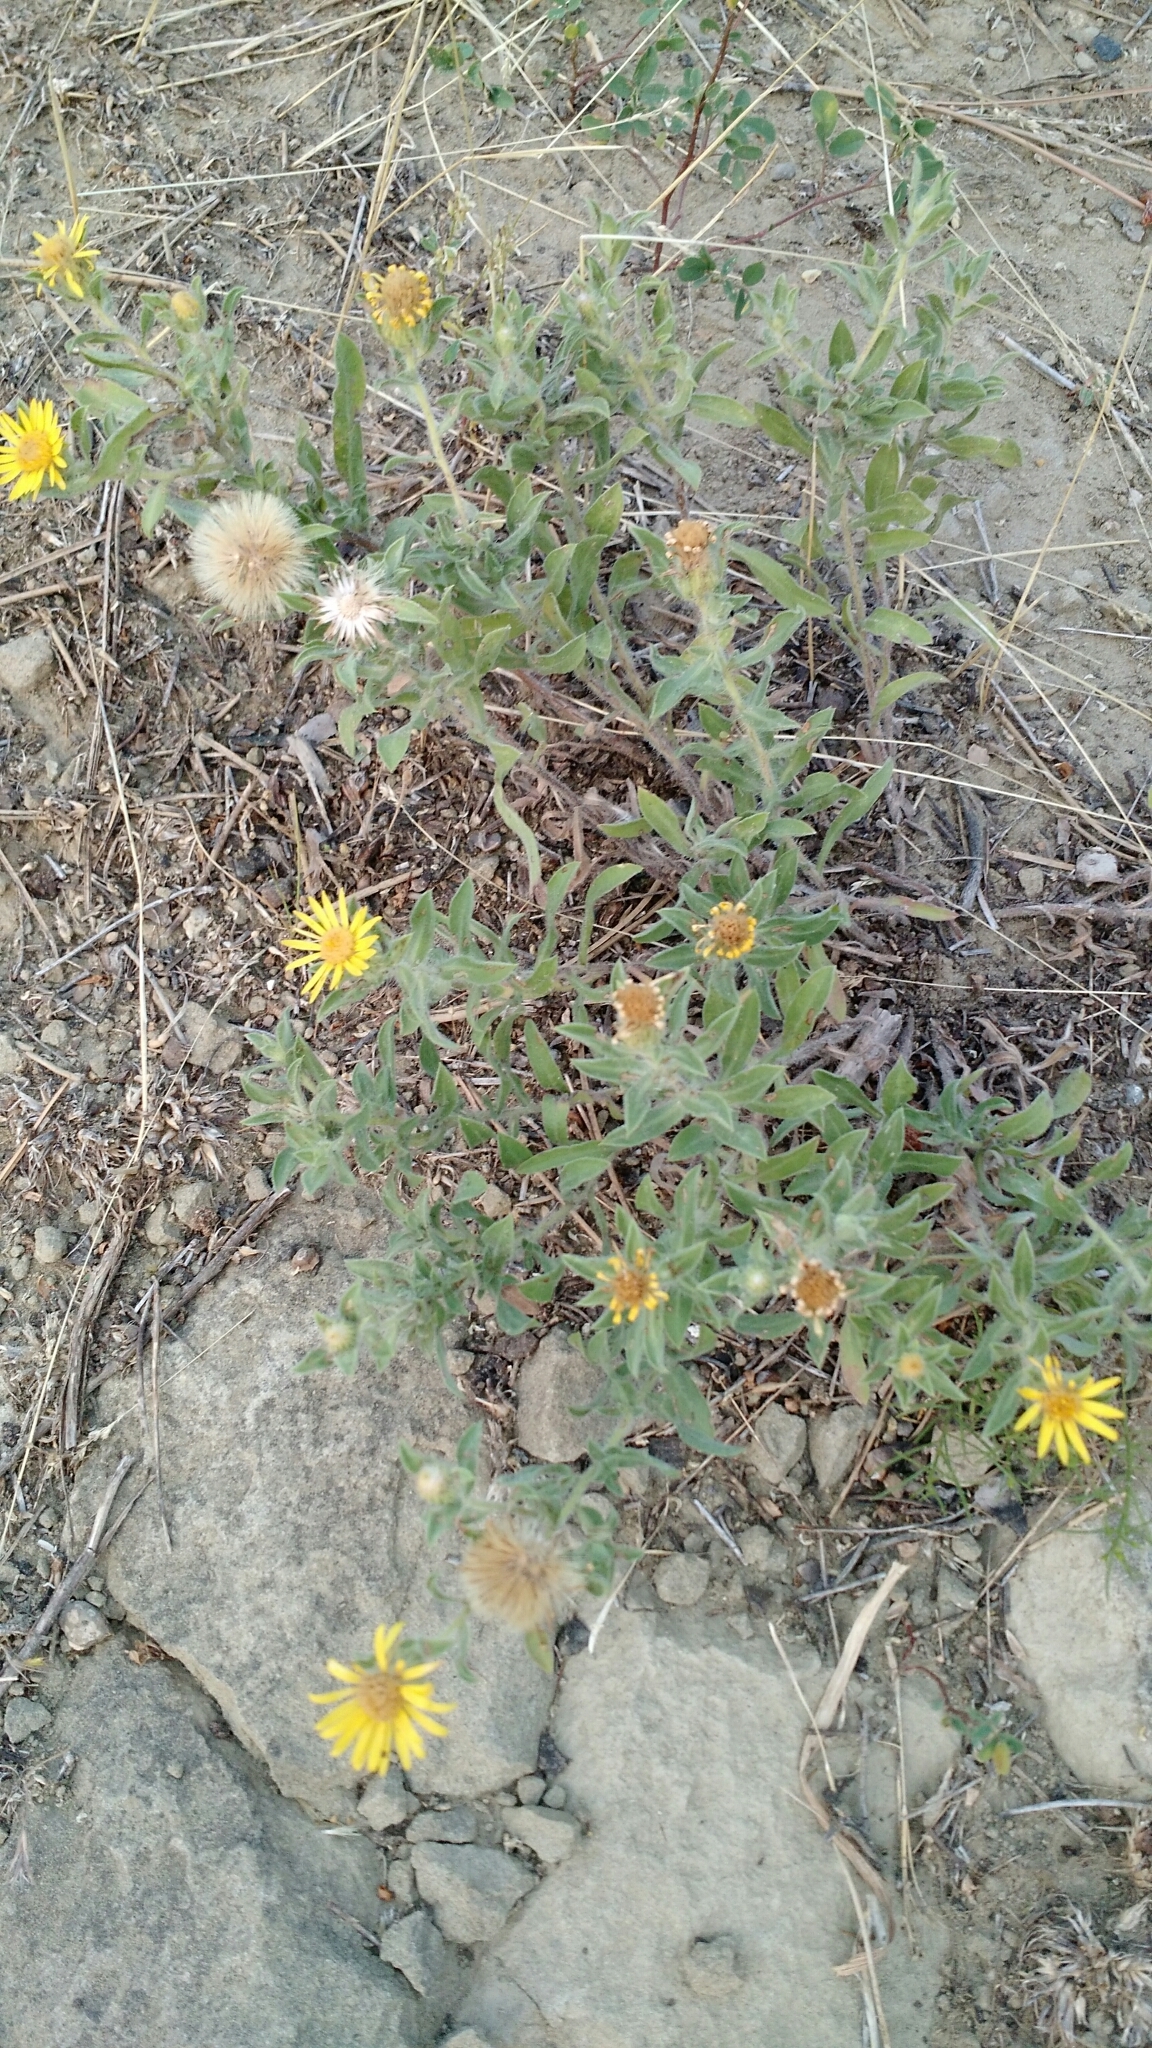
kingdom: Plantae
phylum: Tracheophyta
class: Magnoliopsida
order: Asterales
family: Asteraceae
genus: Heterotheca
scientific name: Heterotheca villosa
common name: Hairy false goldenaster
